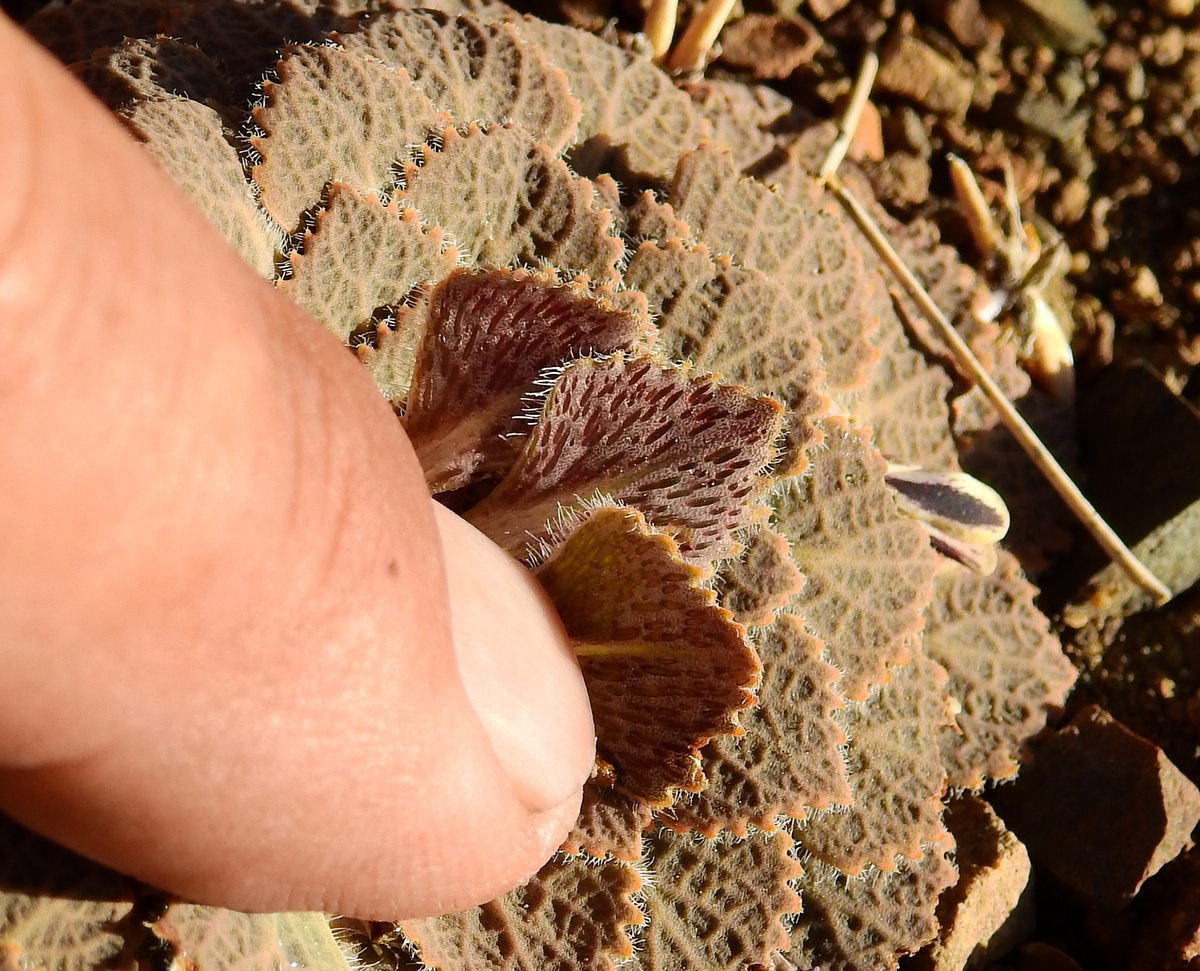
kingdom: Plantae
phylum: Tracheophyta
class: Magnoliopsida
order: Malpighiales
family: Violaceae
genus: Viola
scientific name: Viola volcanica
